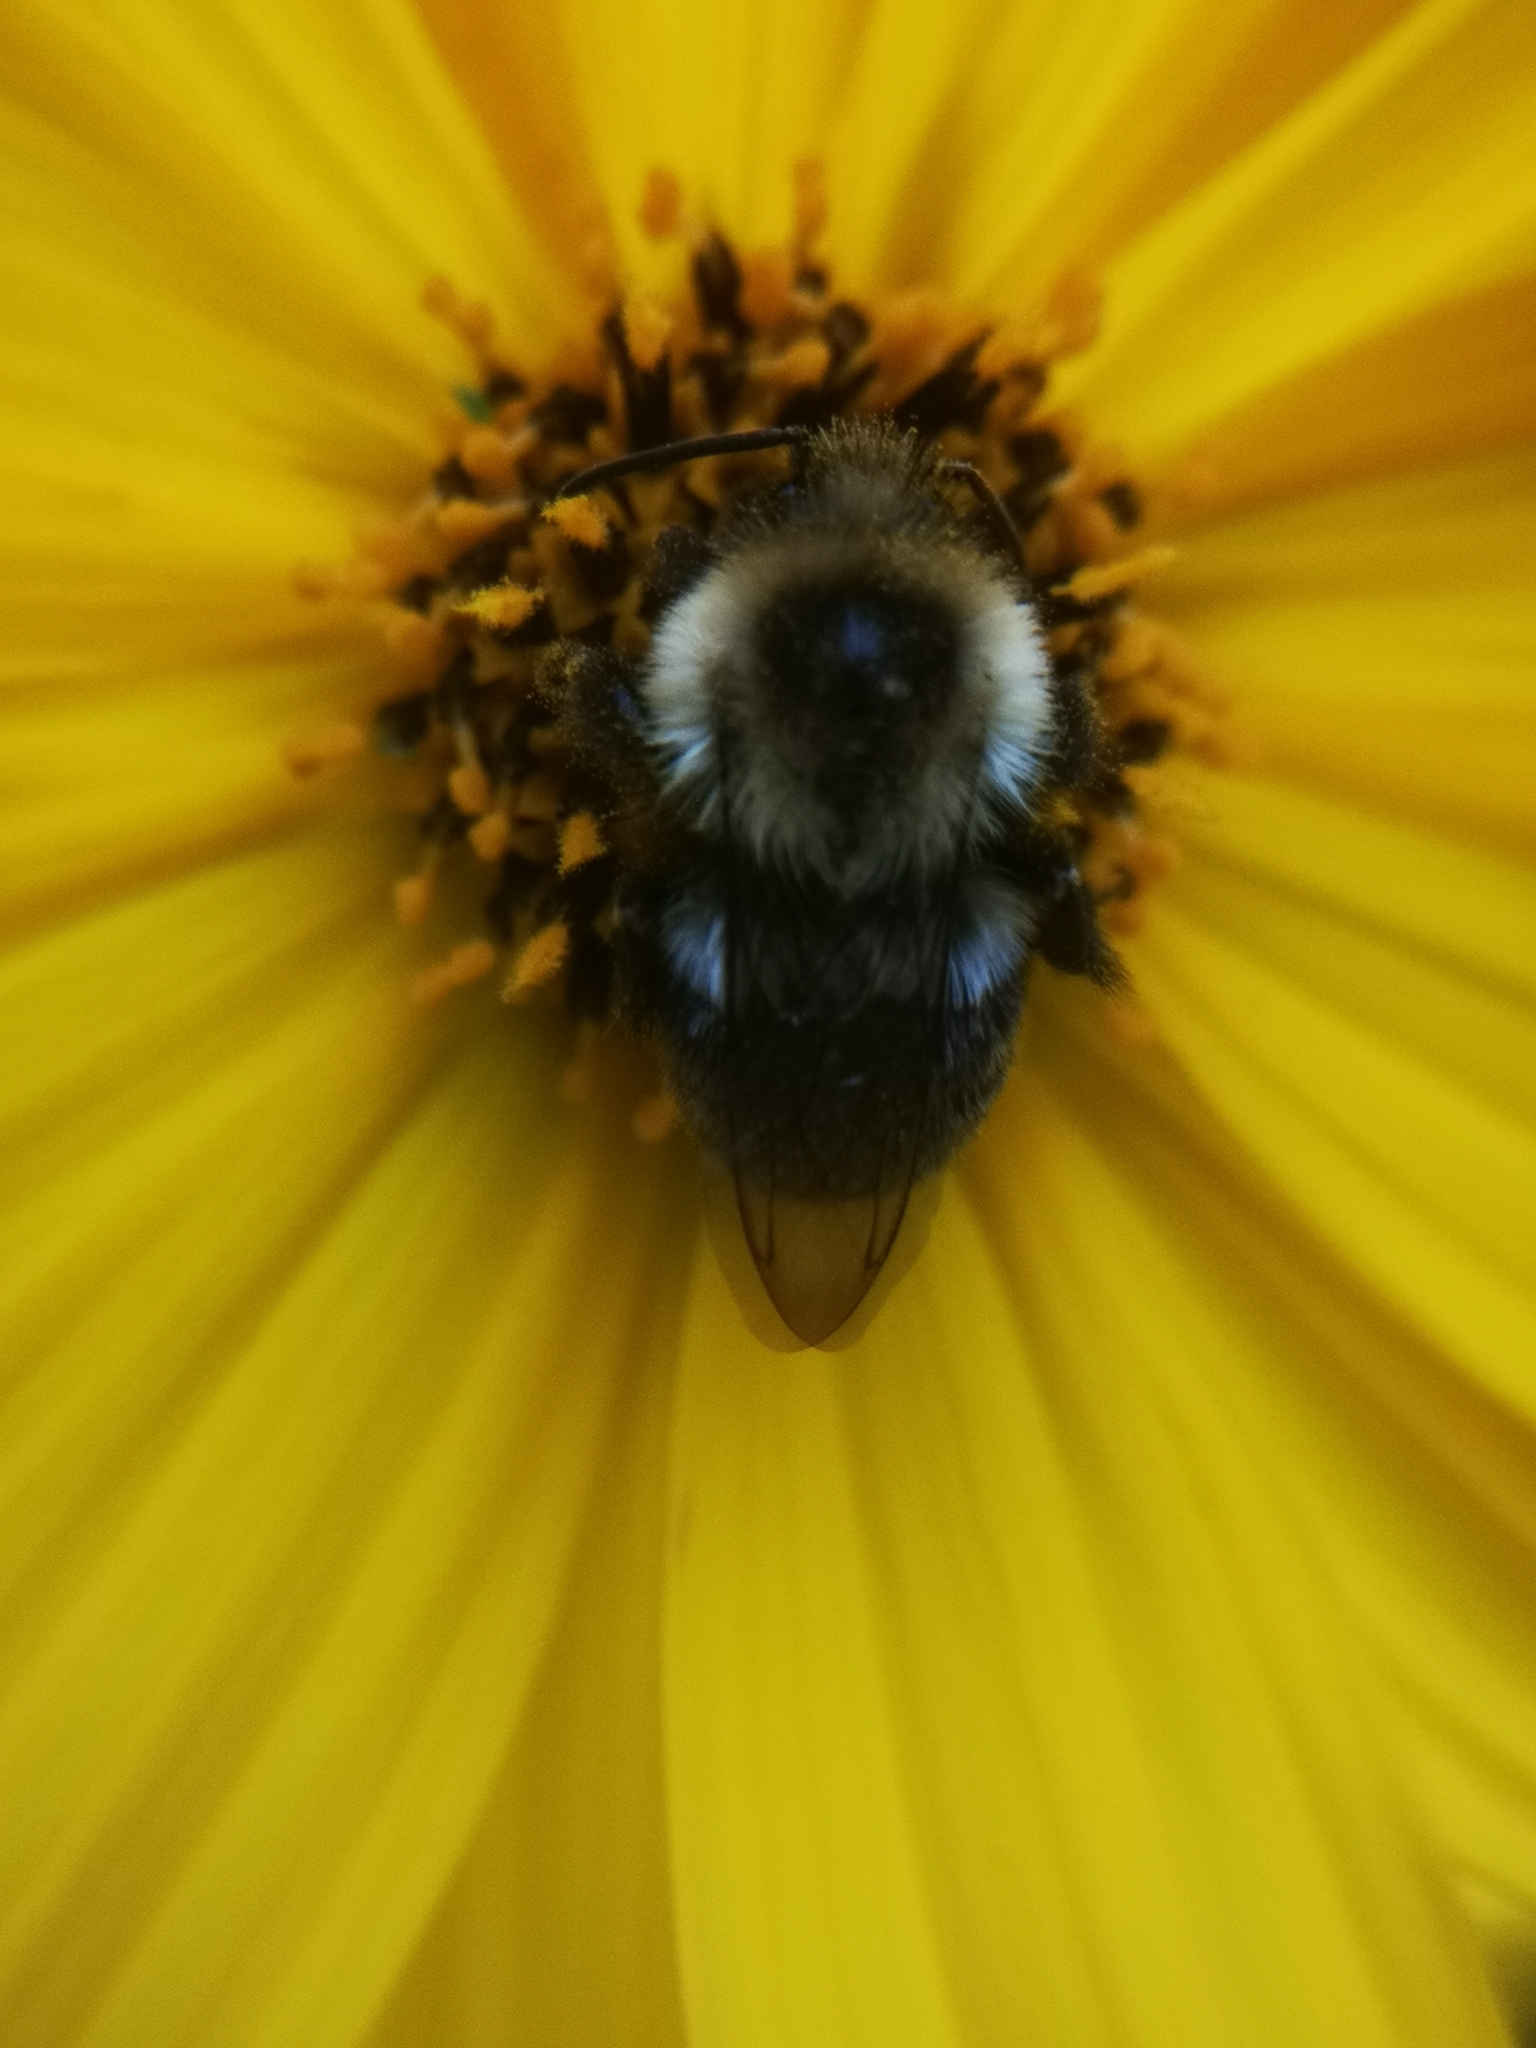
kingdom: Animalia
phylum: Arthropoda
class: Insecta
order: Hymenoptera
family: Apidae
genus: Bombus
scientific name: Bombus impatiens
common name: Common eastern bumble bee
